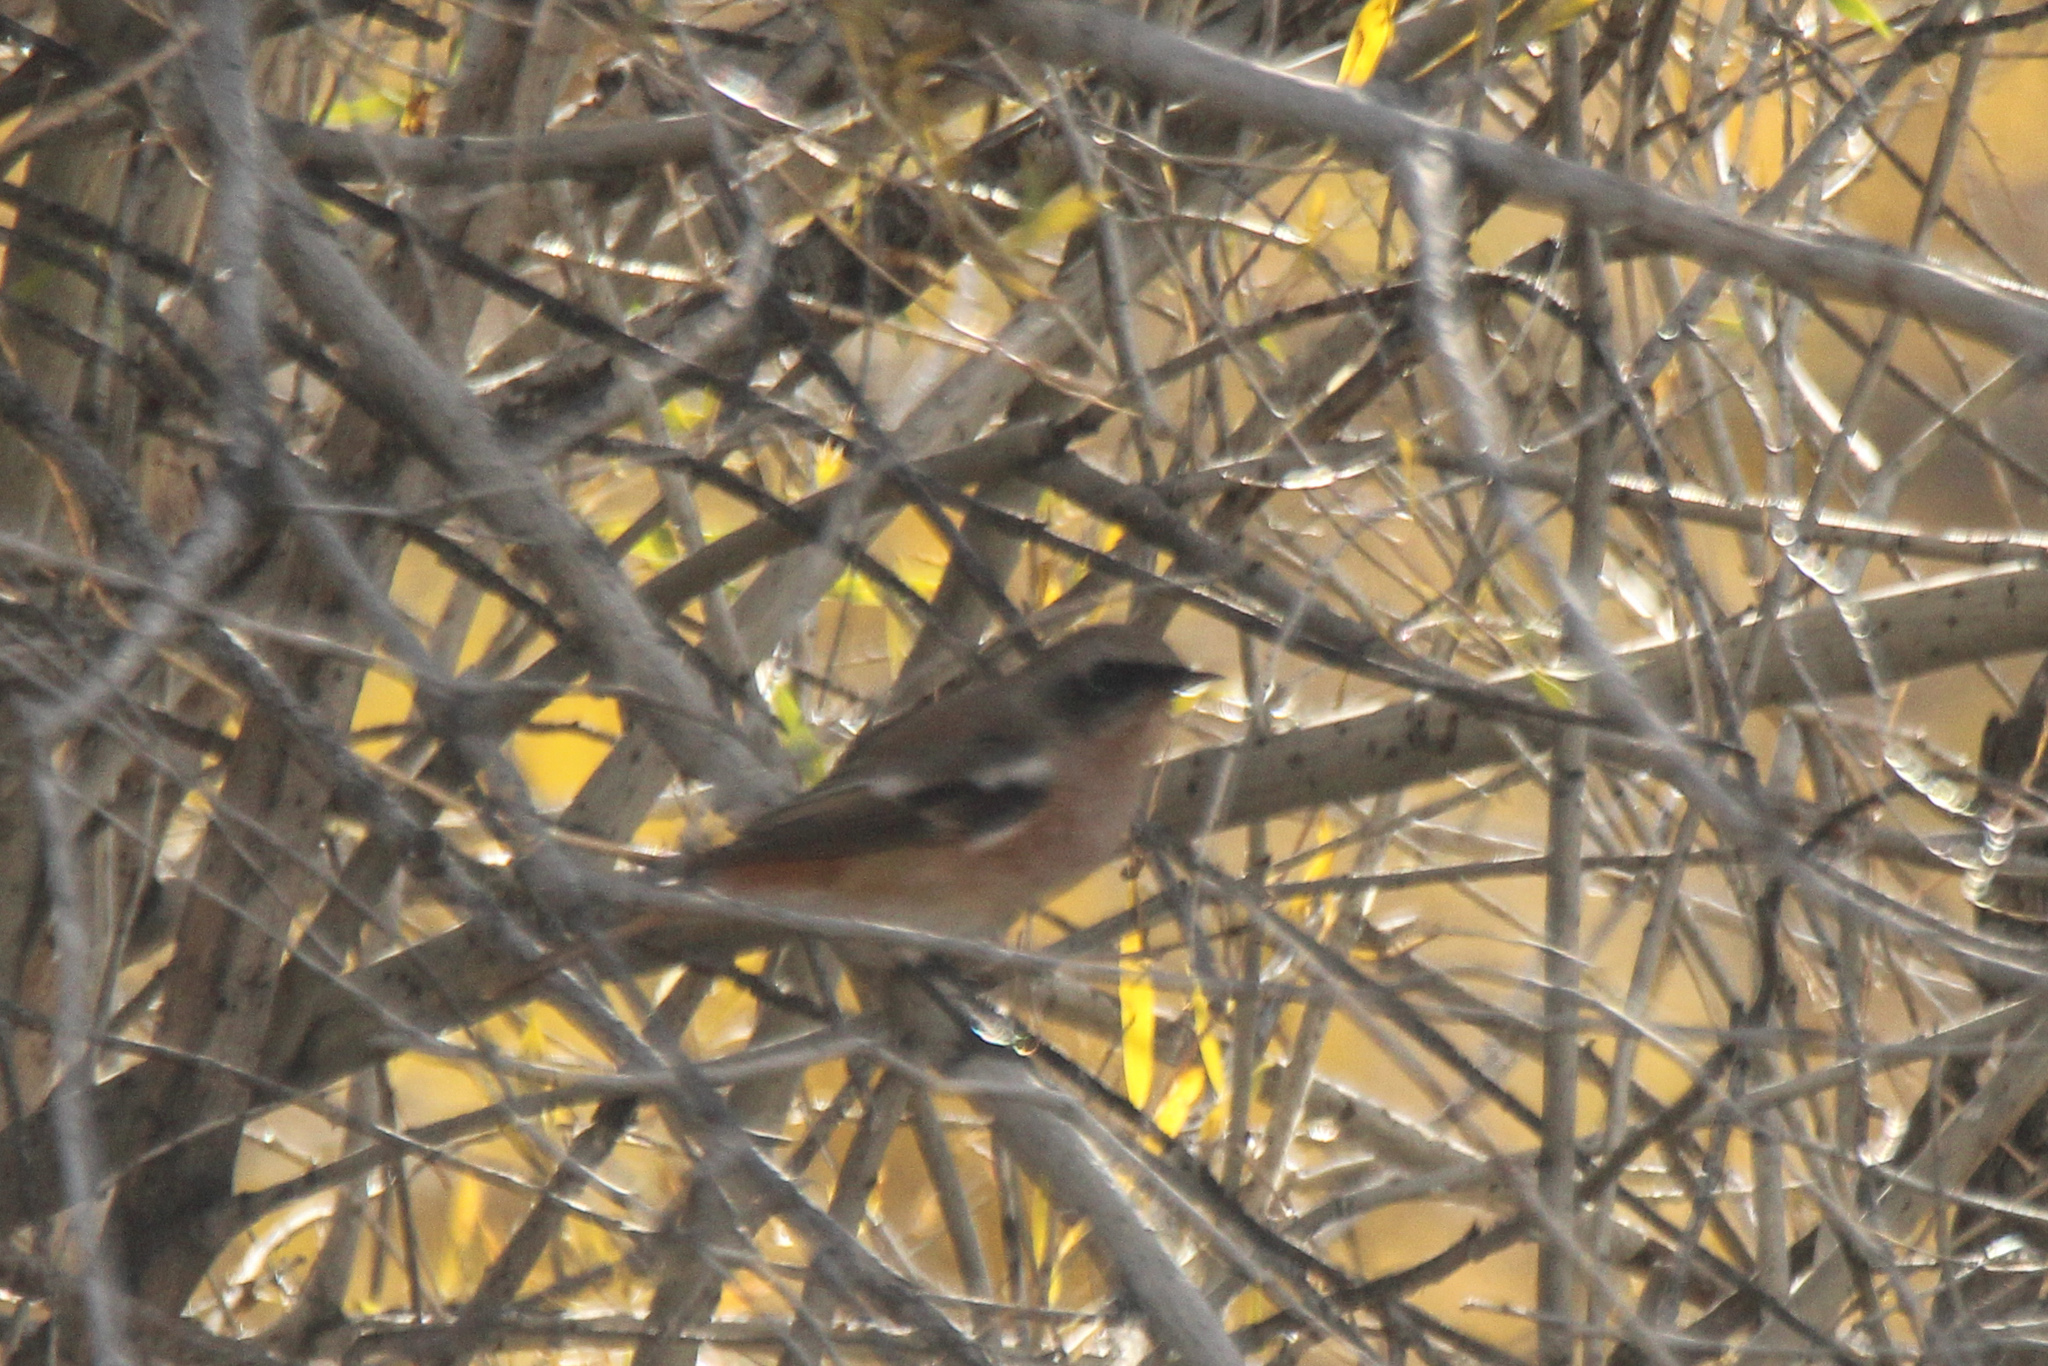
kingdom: Animalia
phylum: Chordata
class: Aves
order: Passeriformes
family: Muscicapidae
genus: Phoenicurus
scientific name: Phoenicurus erythronotus
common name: Eversmann's redstart
